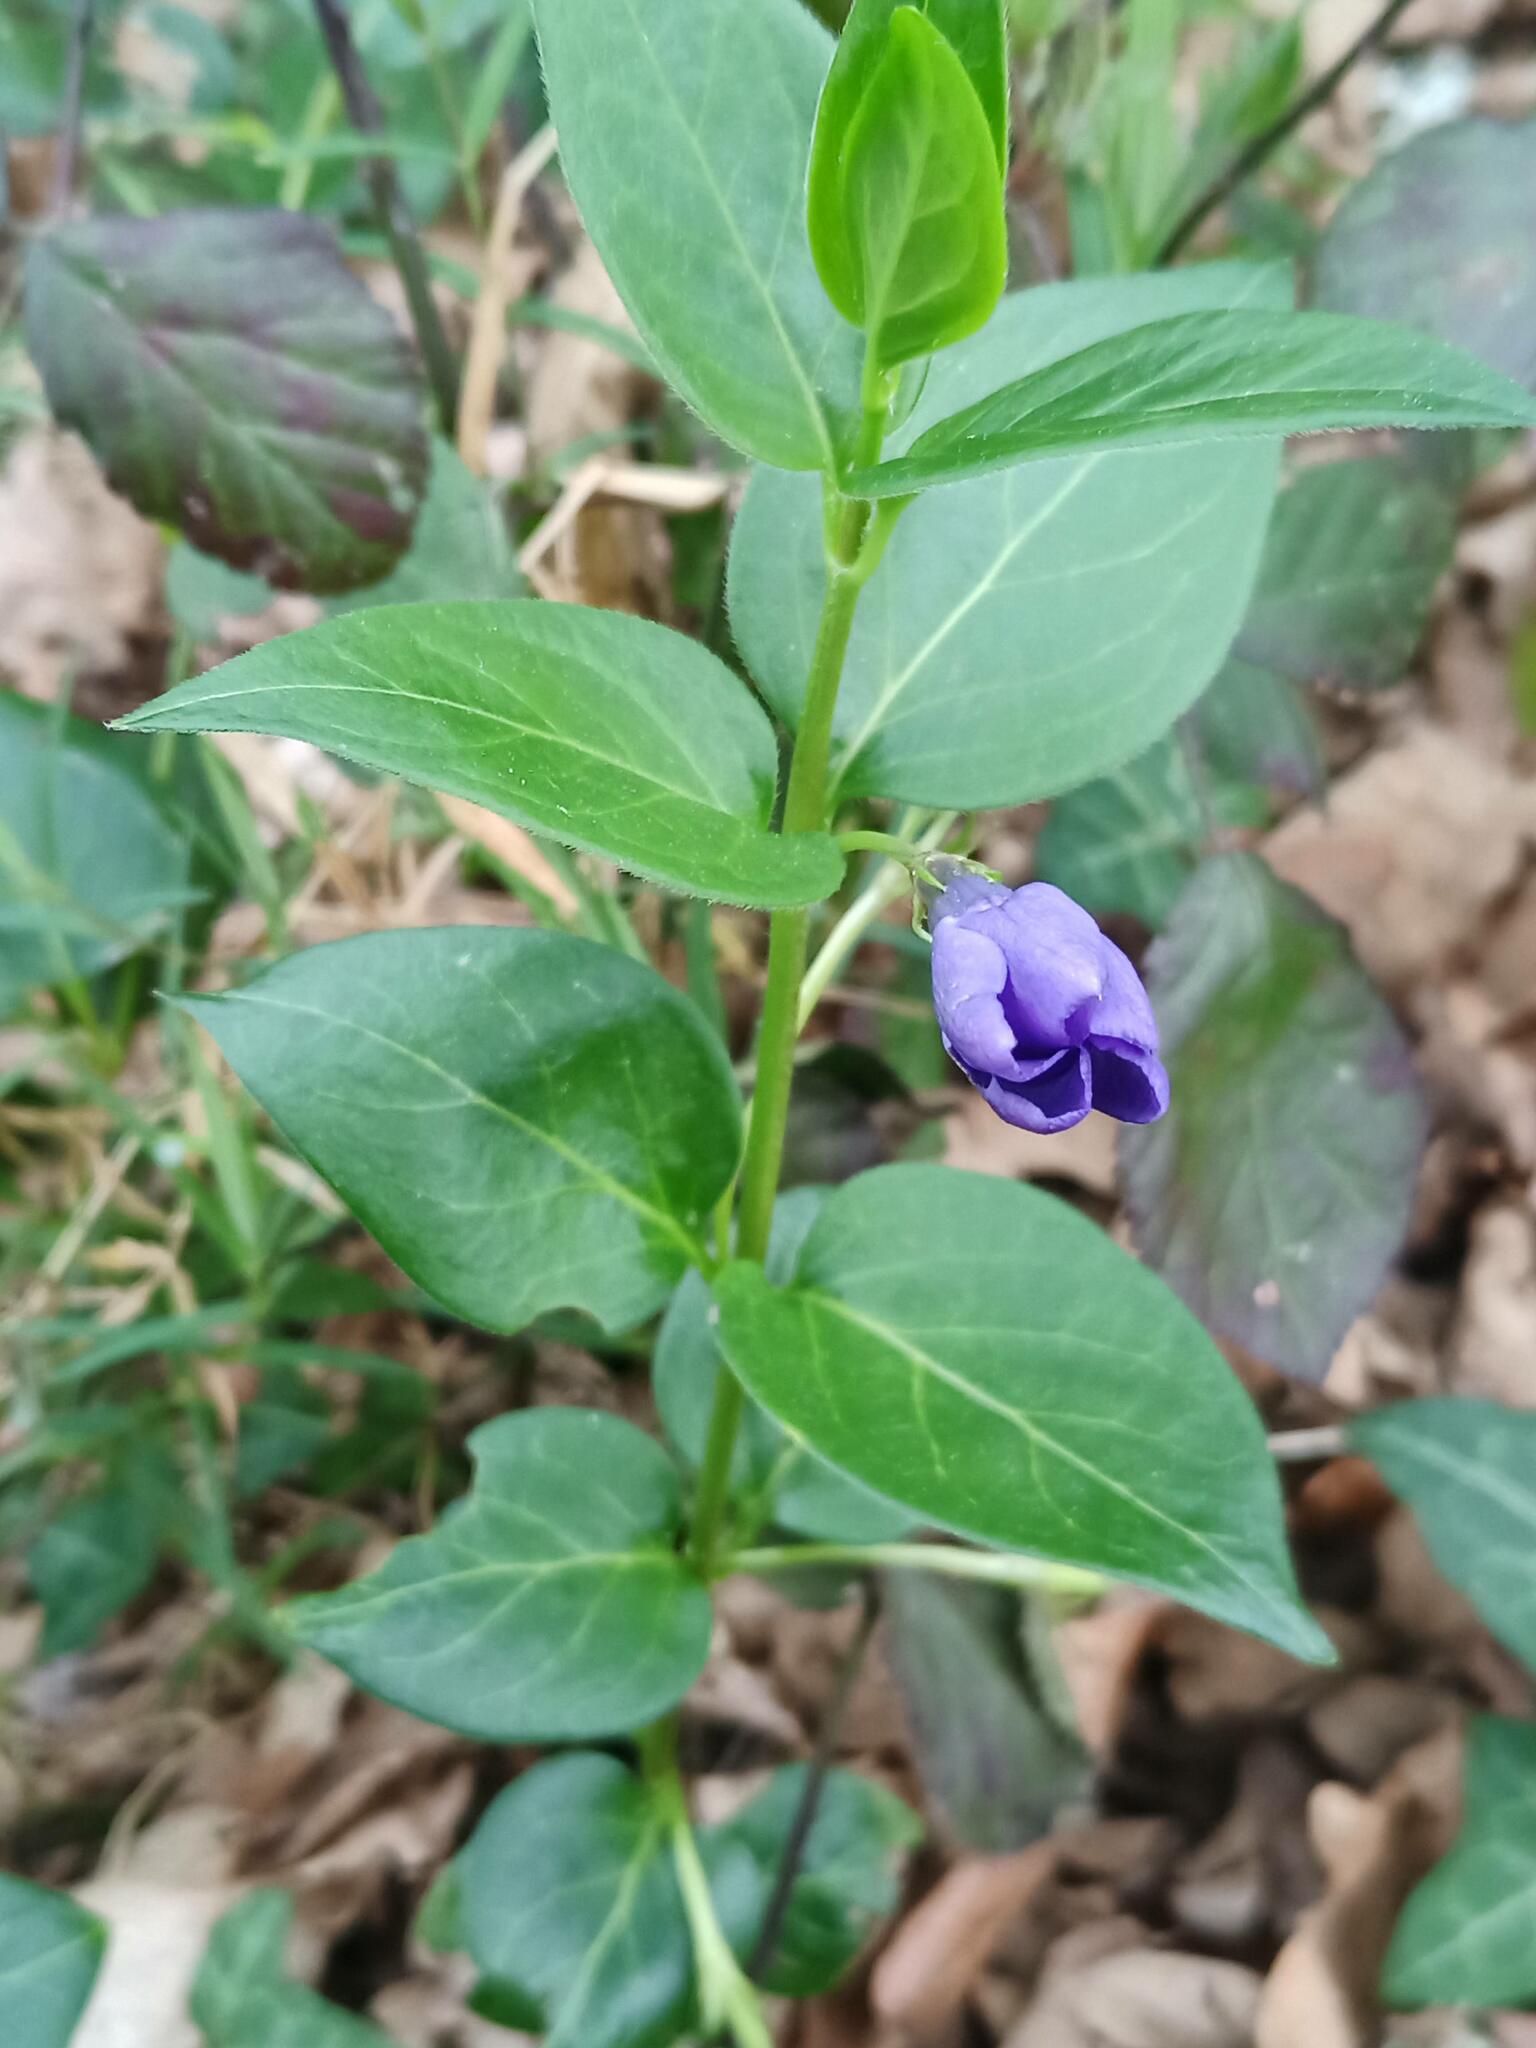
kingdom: Plantae
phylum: Tracheophyta
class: Magnoliopsida
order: Gentianales
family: Apocynaceae
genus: Vinca
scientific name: Vinca major
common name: Greater periwinkle
